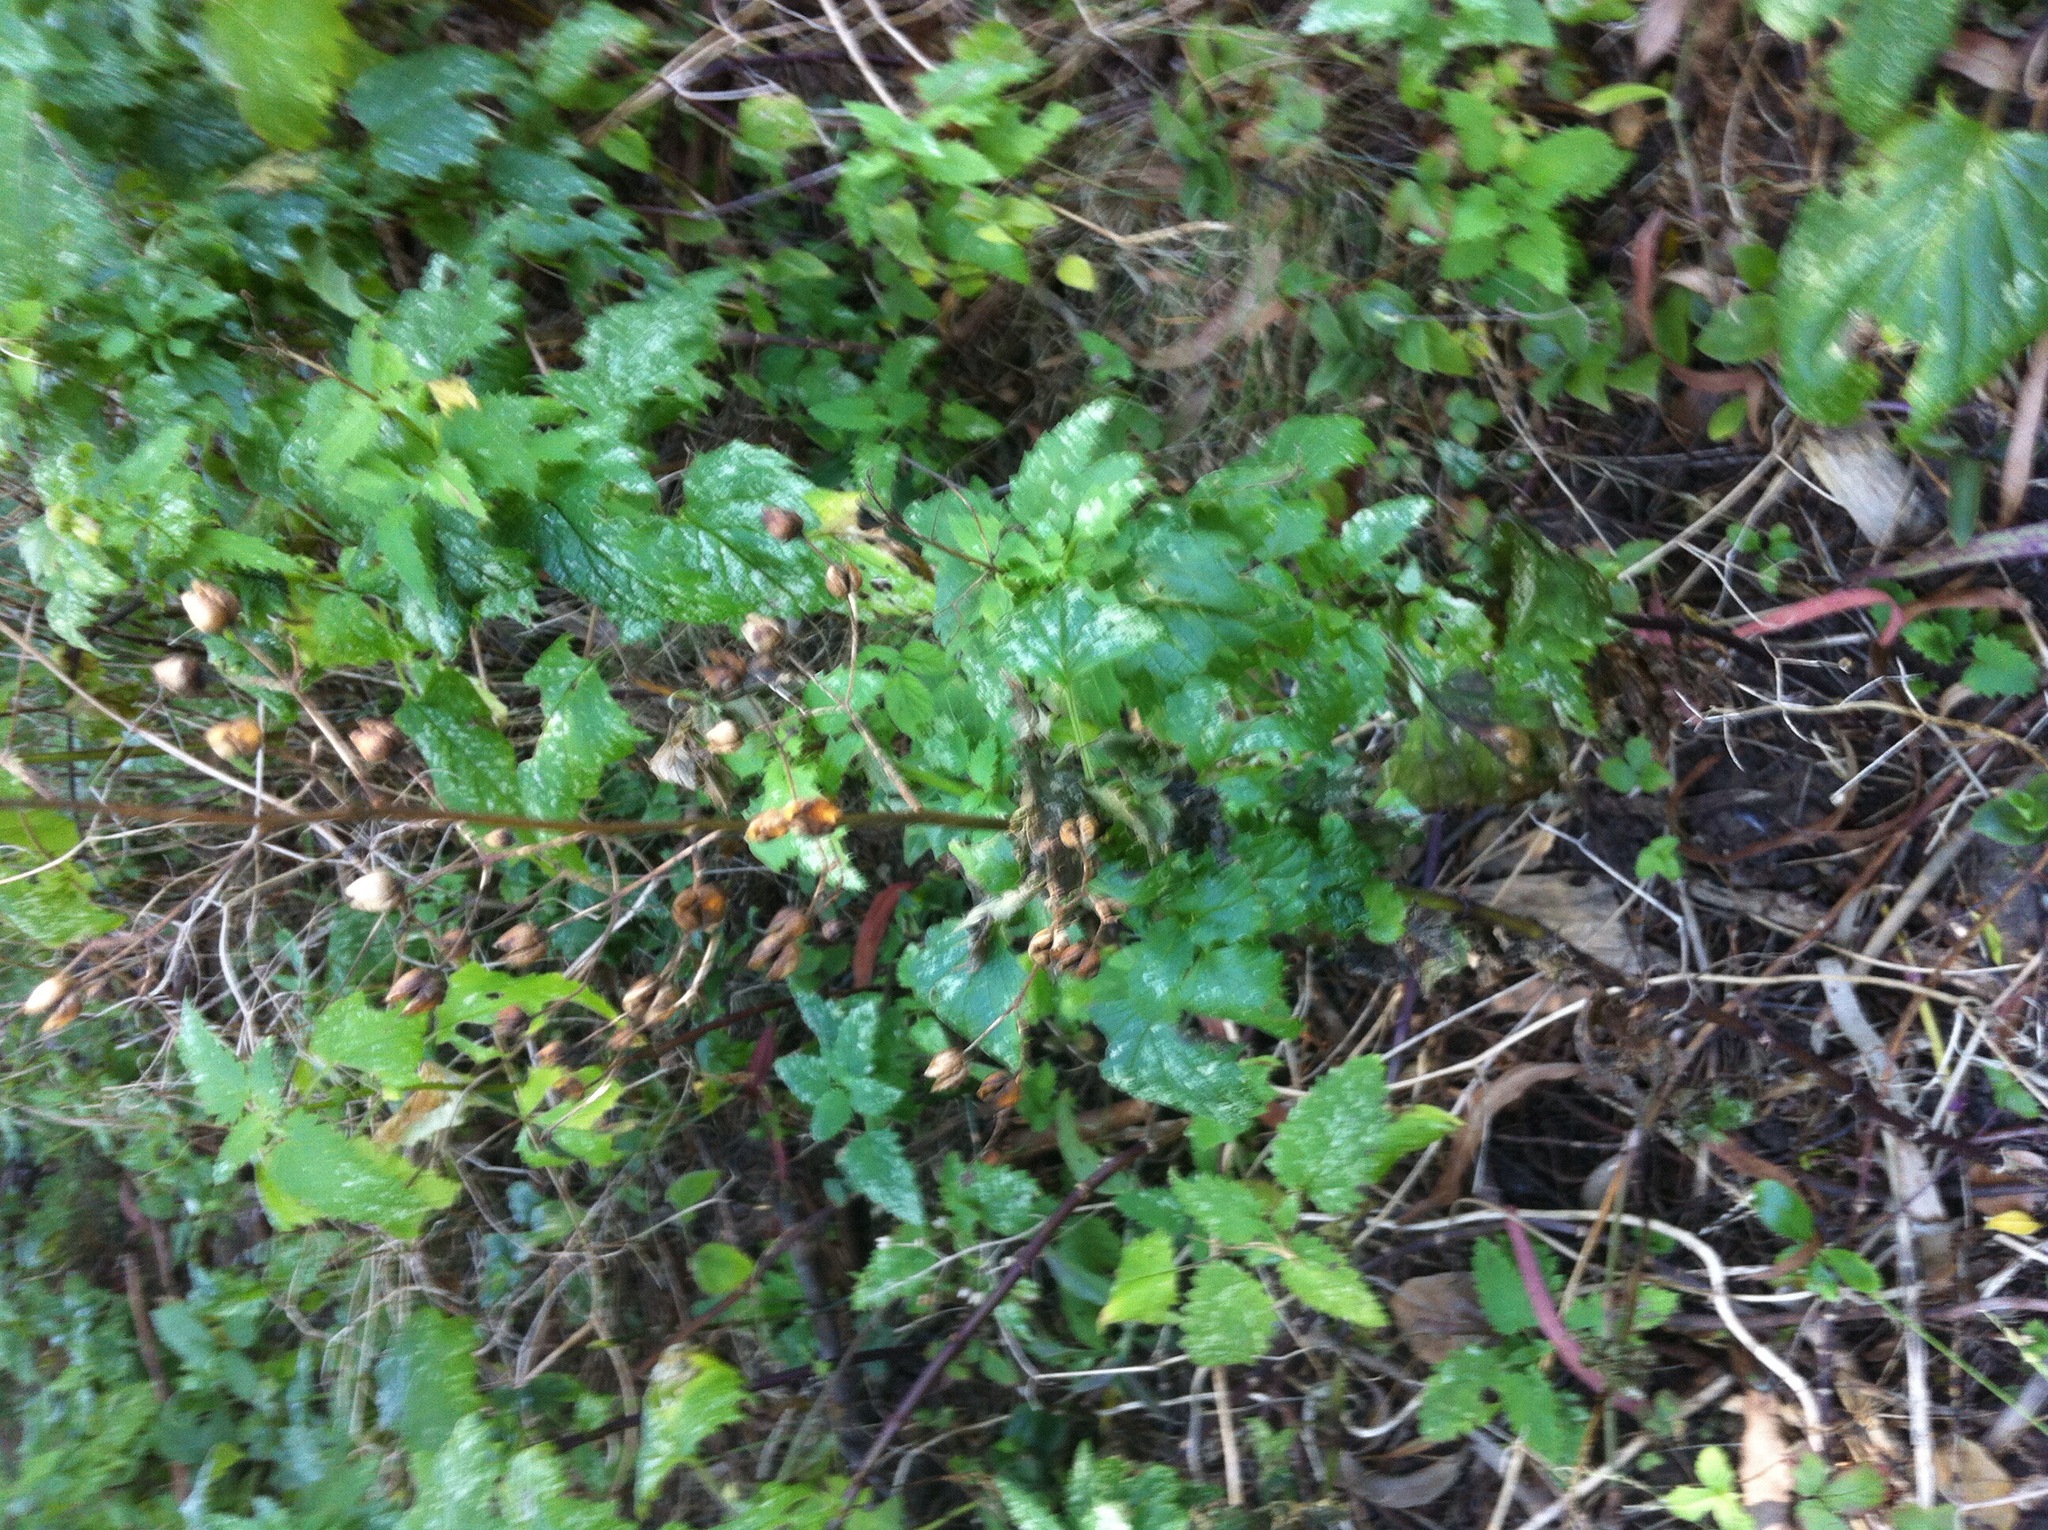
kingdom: Plantae
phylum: Tracheophyta
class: Magnoliopsida
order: Lamiales
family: Scrophulariaceae
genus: Scrophularia
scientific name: Scrophularia californica
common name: California figwort
